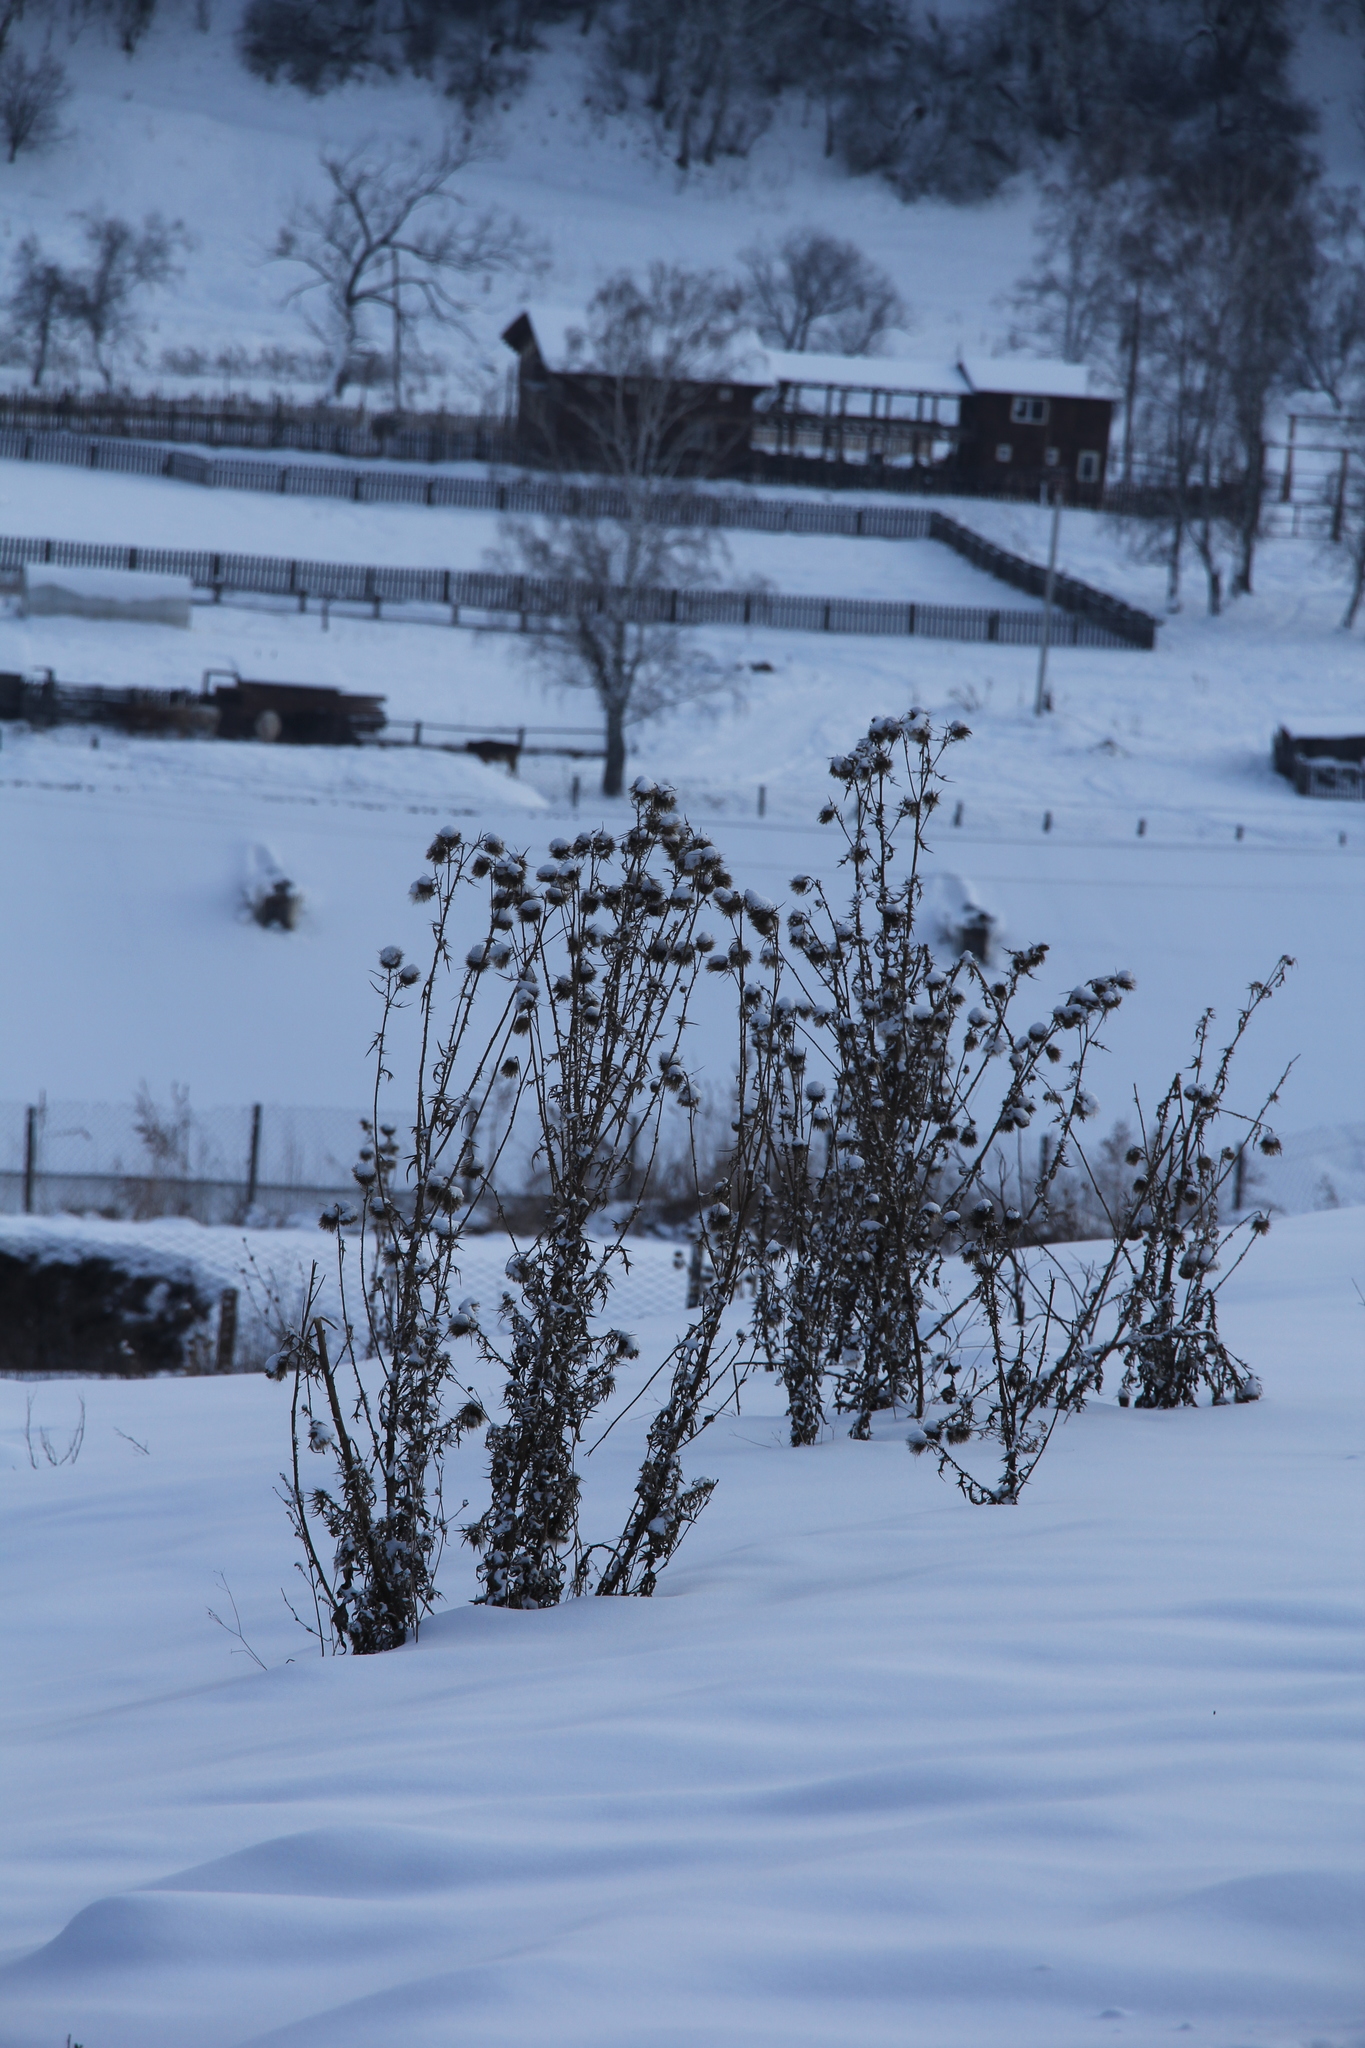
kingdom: Plantae
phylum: Tracheophyta
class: Magnoliopsida
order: Asterales
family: Asteraceae
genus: Cirsium
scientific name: Cirsium vulgare
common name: Bull thistle
